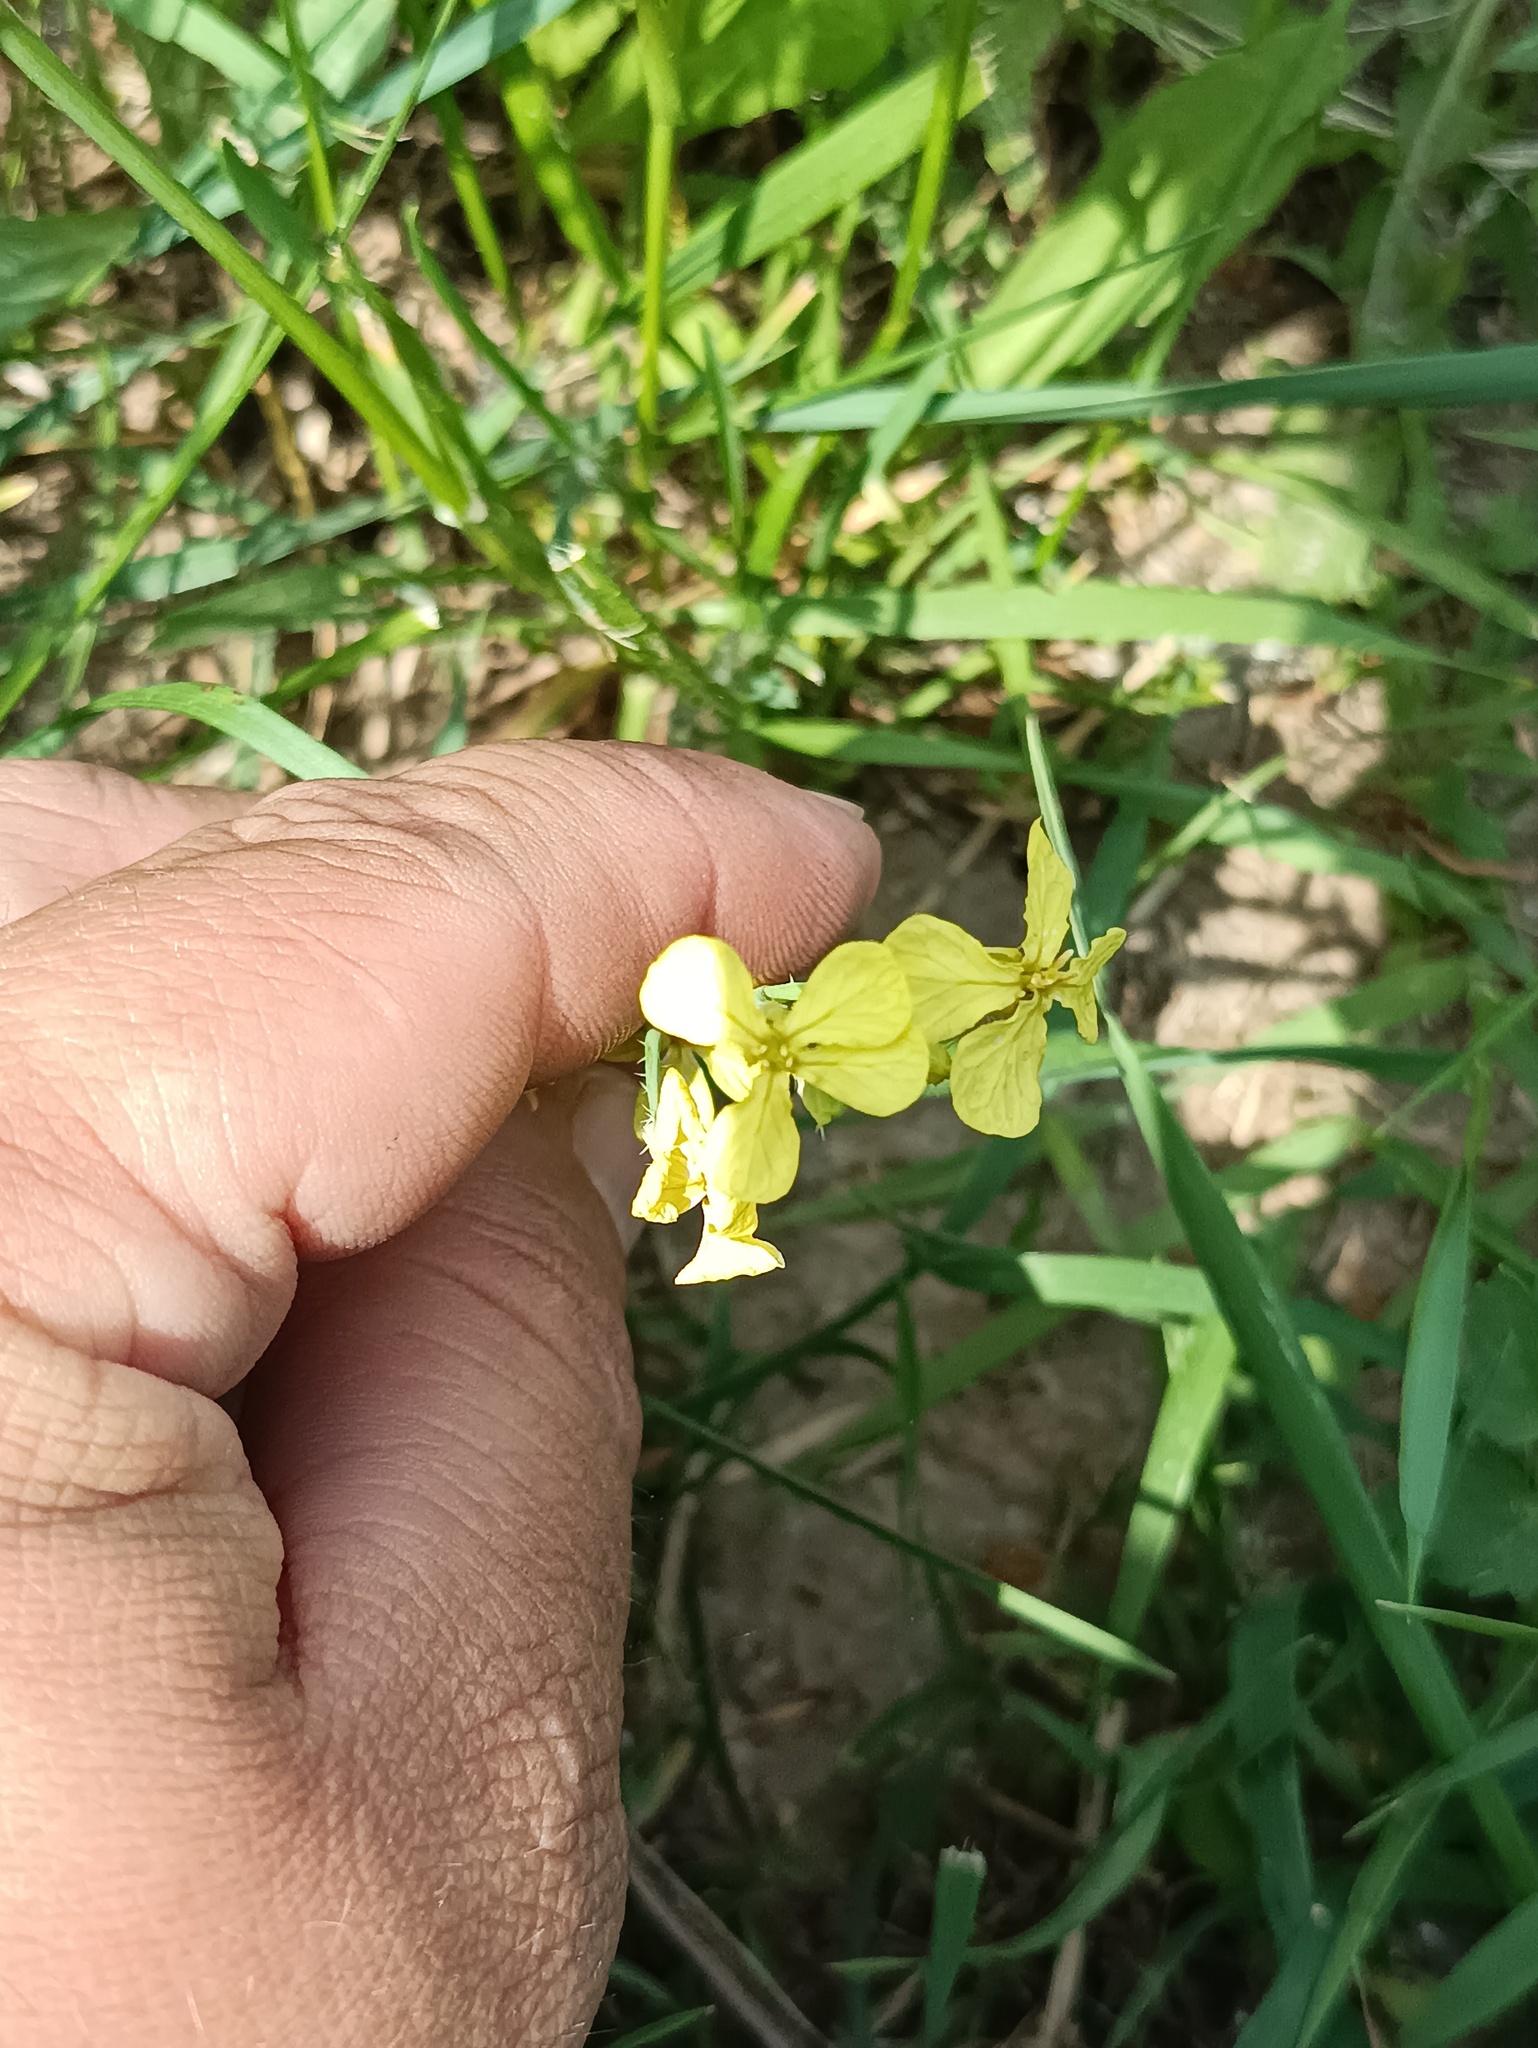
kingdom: Plantae
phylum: Tracheophyta
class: Magnoliopsida
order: Brassicales
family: Brassicaceae
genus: Raphanus
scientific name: Raphanus raphanistrum
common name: Wild radish
